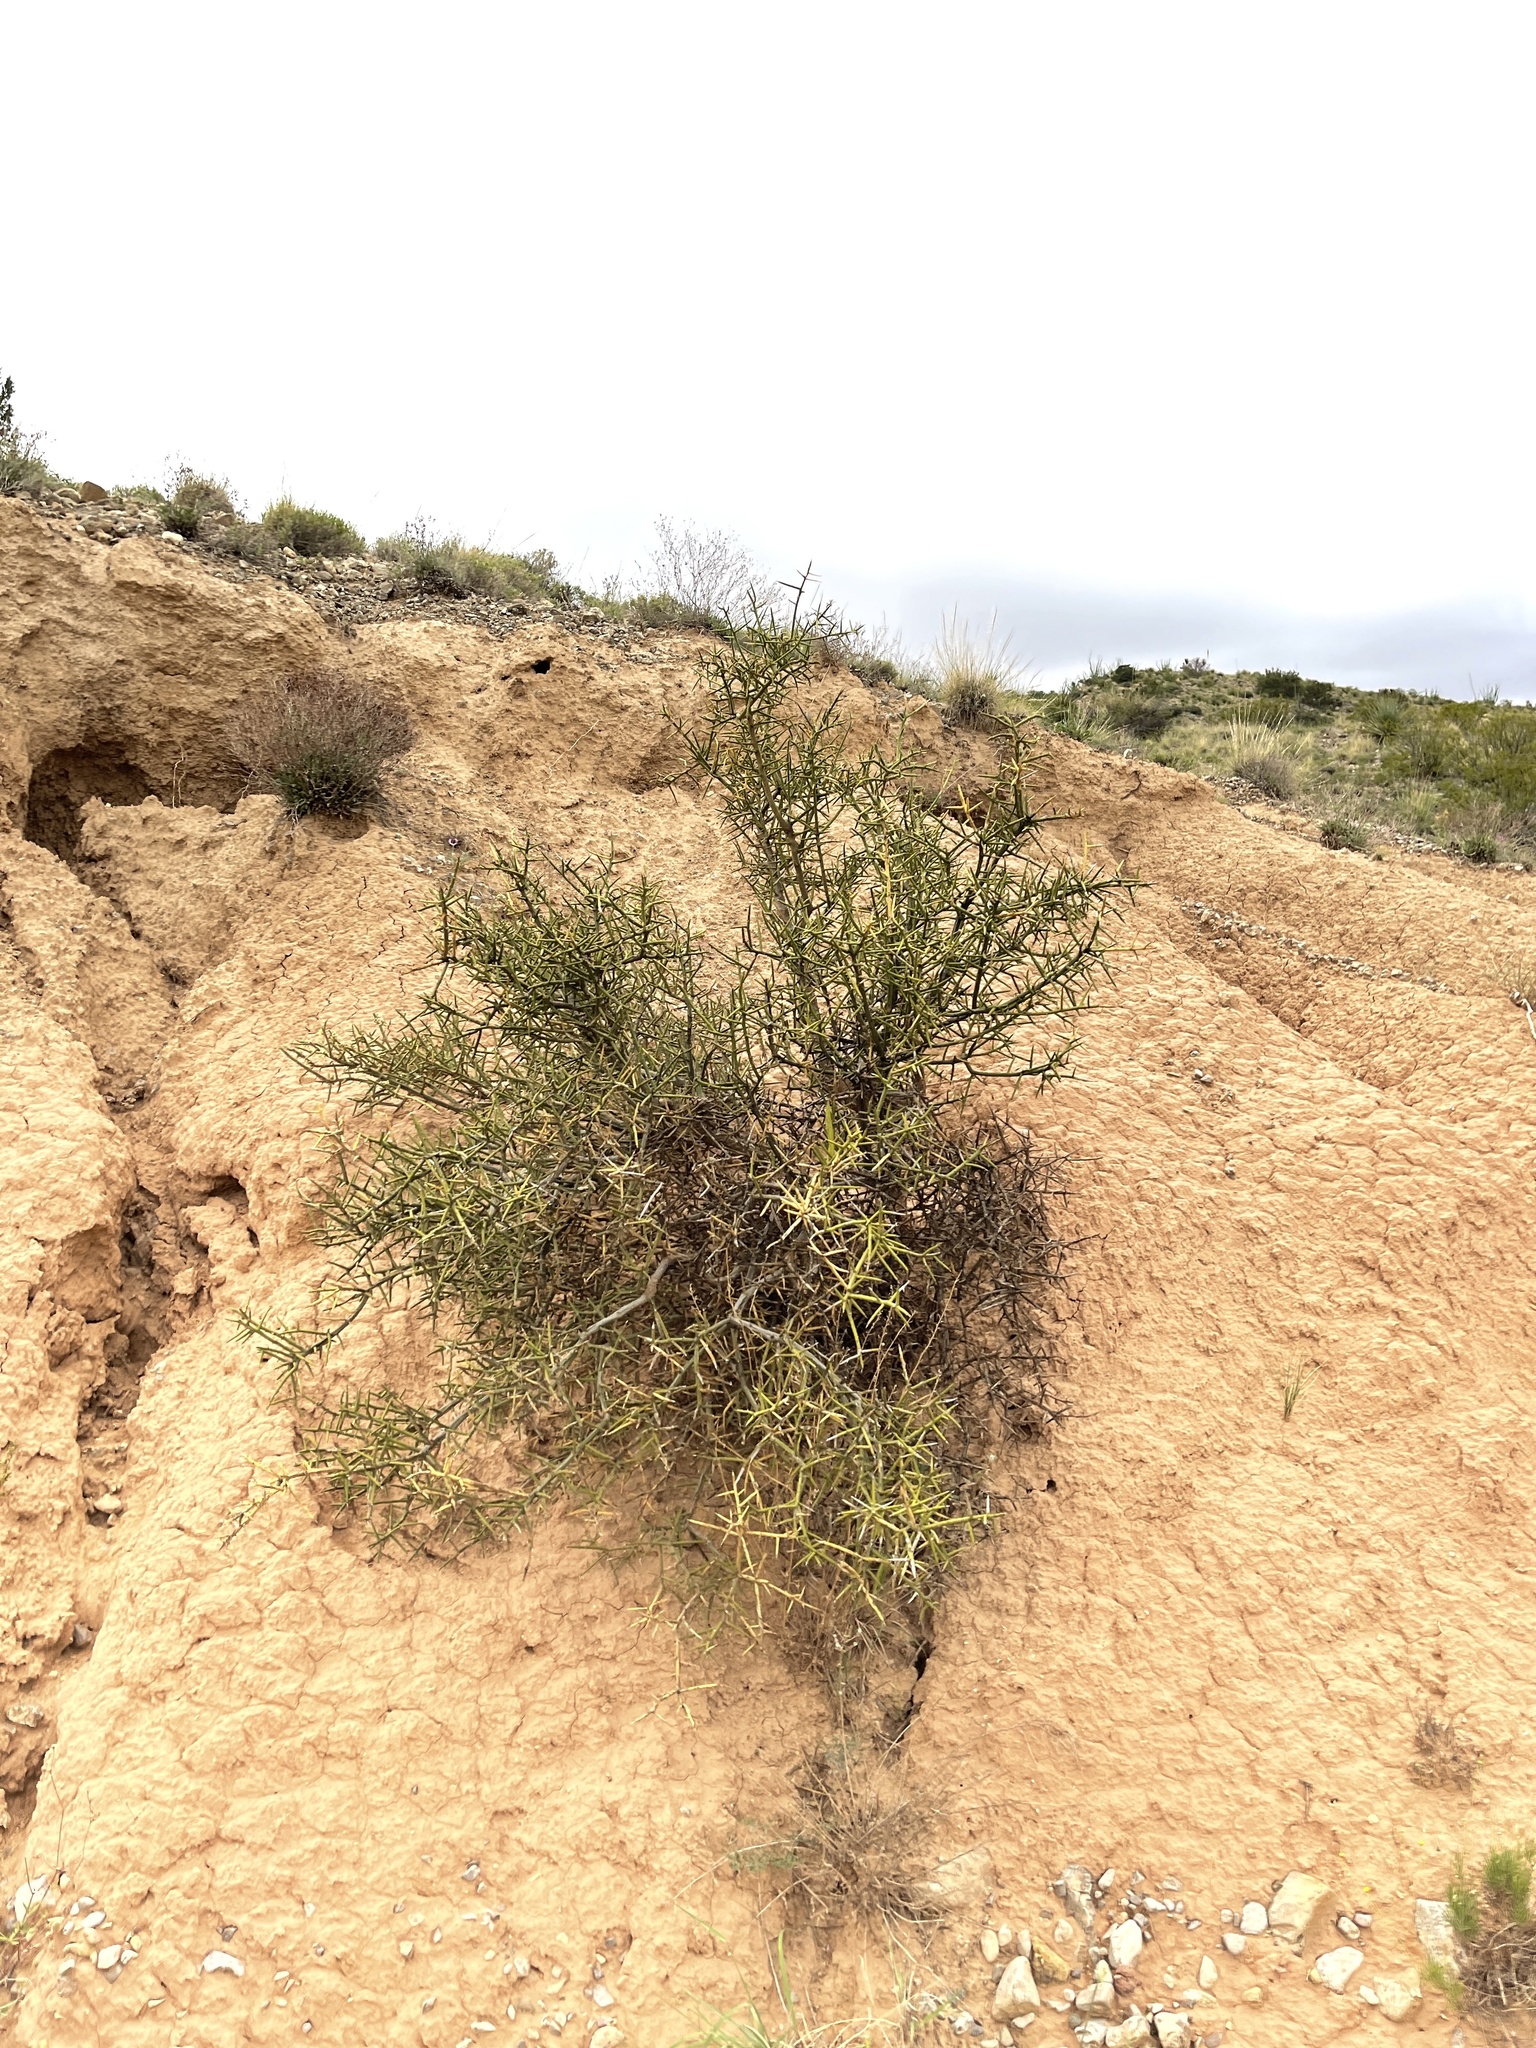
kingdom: Plantae
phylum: Tracheophyta
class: Magnoliopsida
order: Brassicales
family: Koeberliniaceae
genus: Koeberlinia
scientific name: Koeberlinia spinosa
